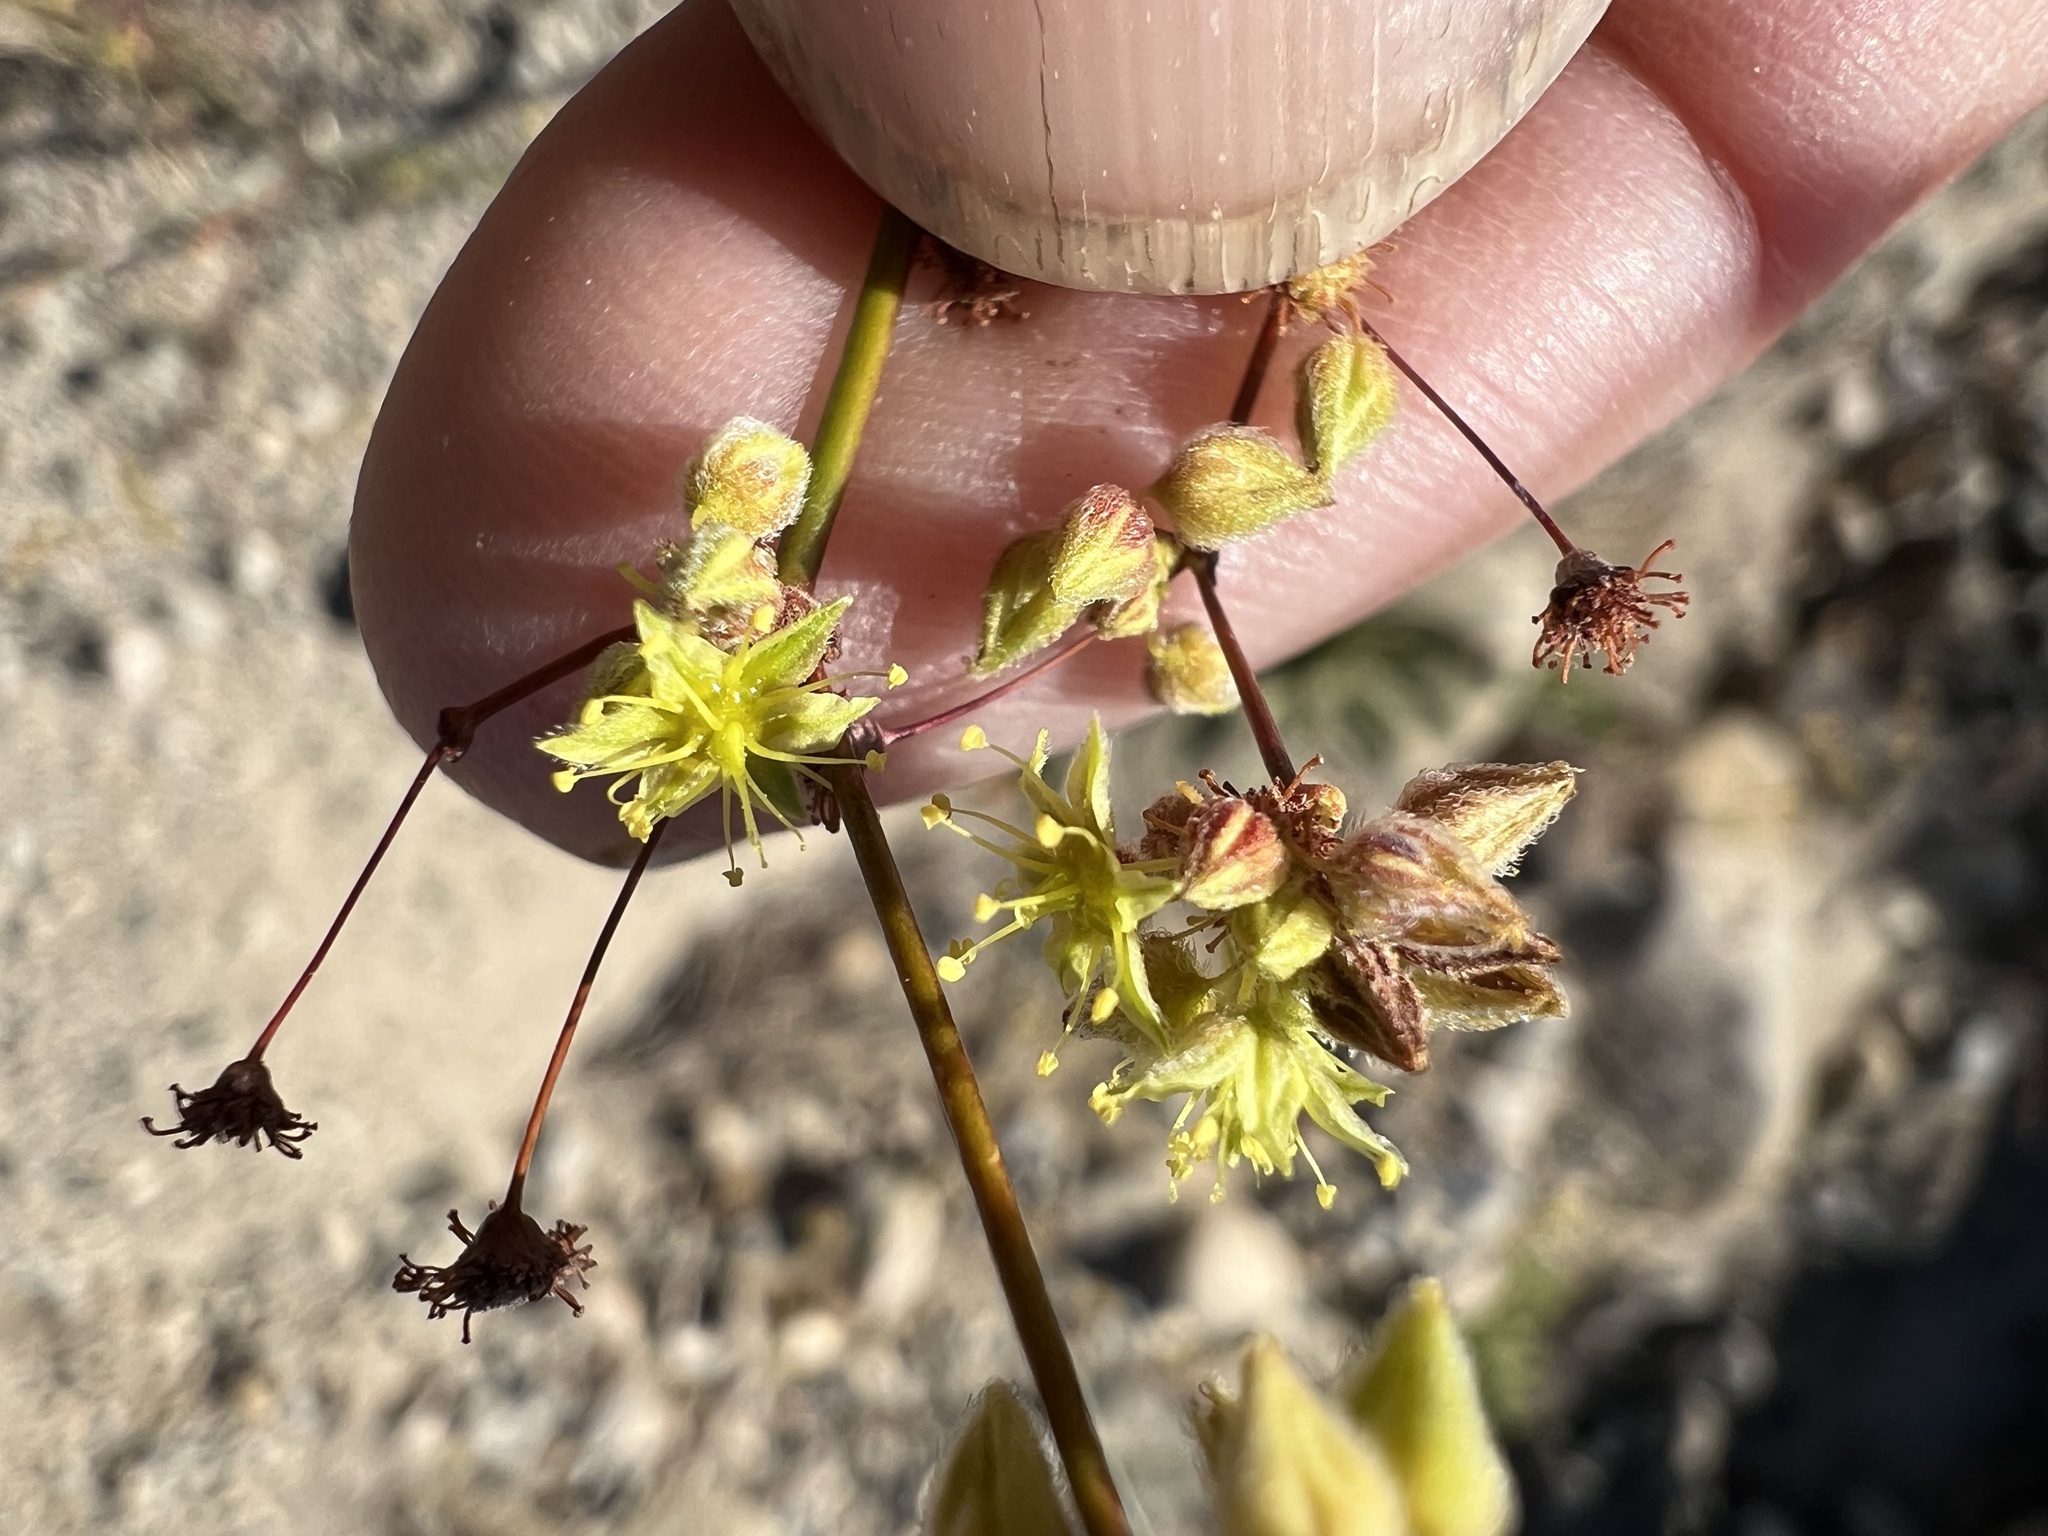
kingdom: Plantae
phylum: Tracheophyta
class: Magnoliopsida
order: Caryophyllales
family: Polygonaceae
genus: Eriogonum
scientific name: Eriogonum inflatum
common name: Desert trumpet
